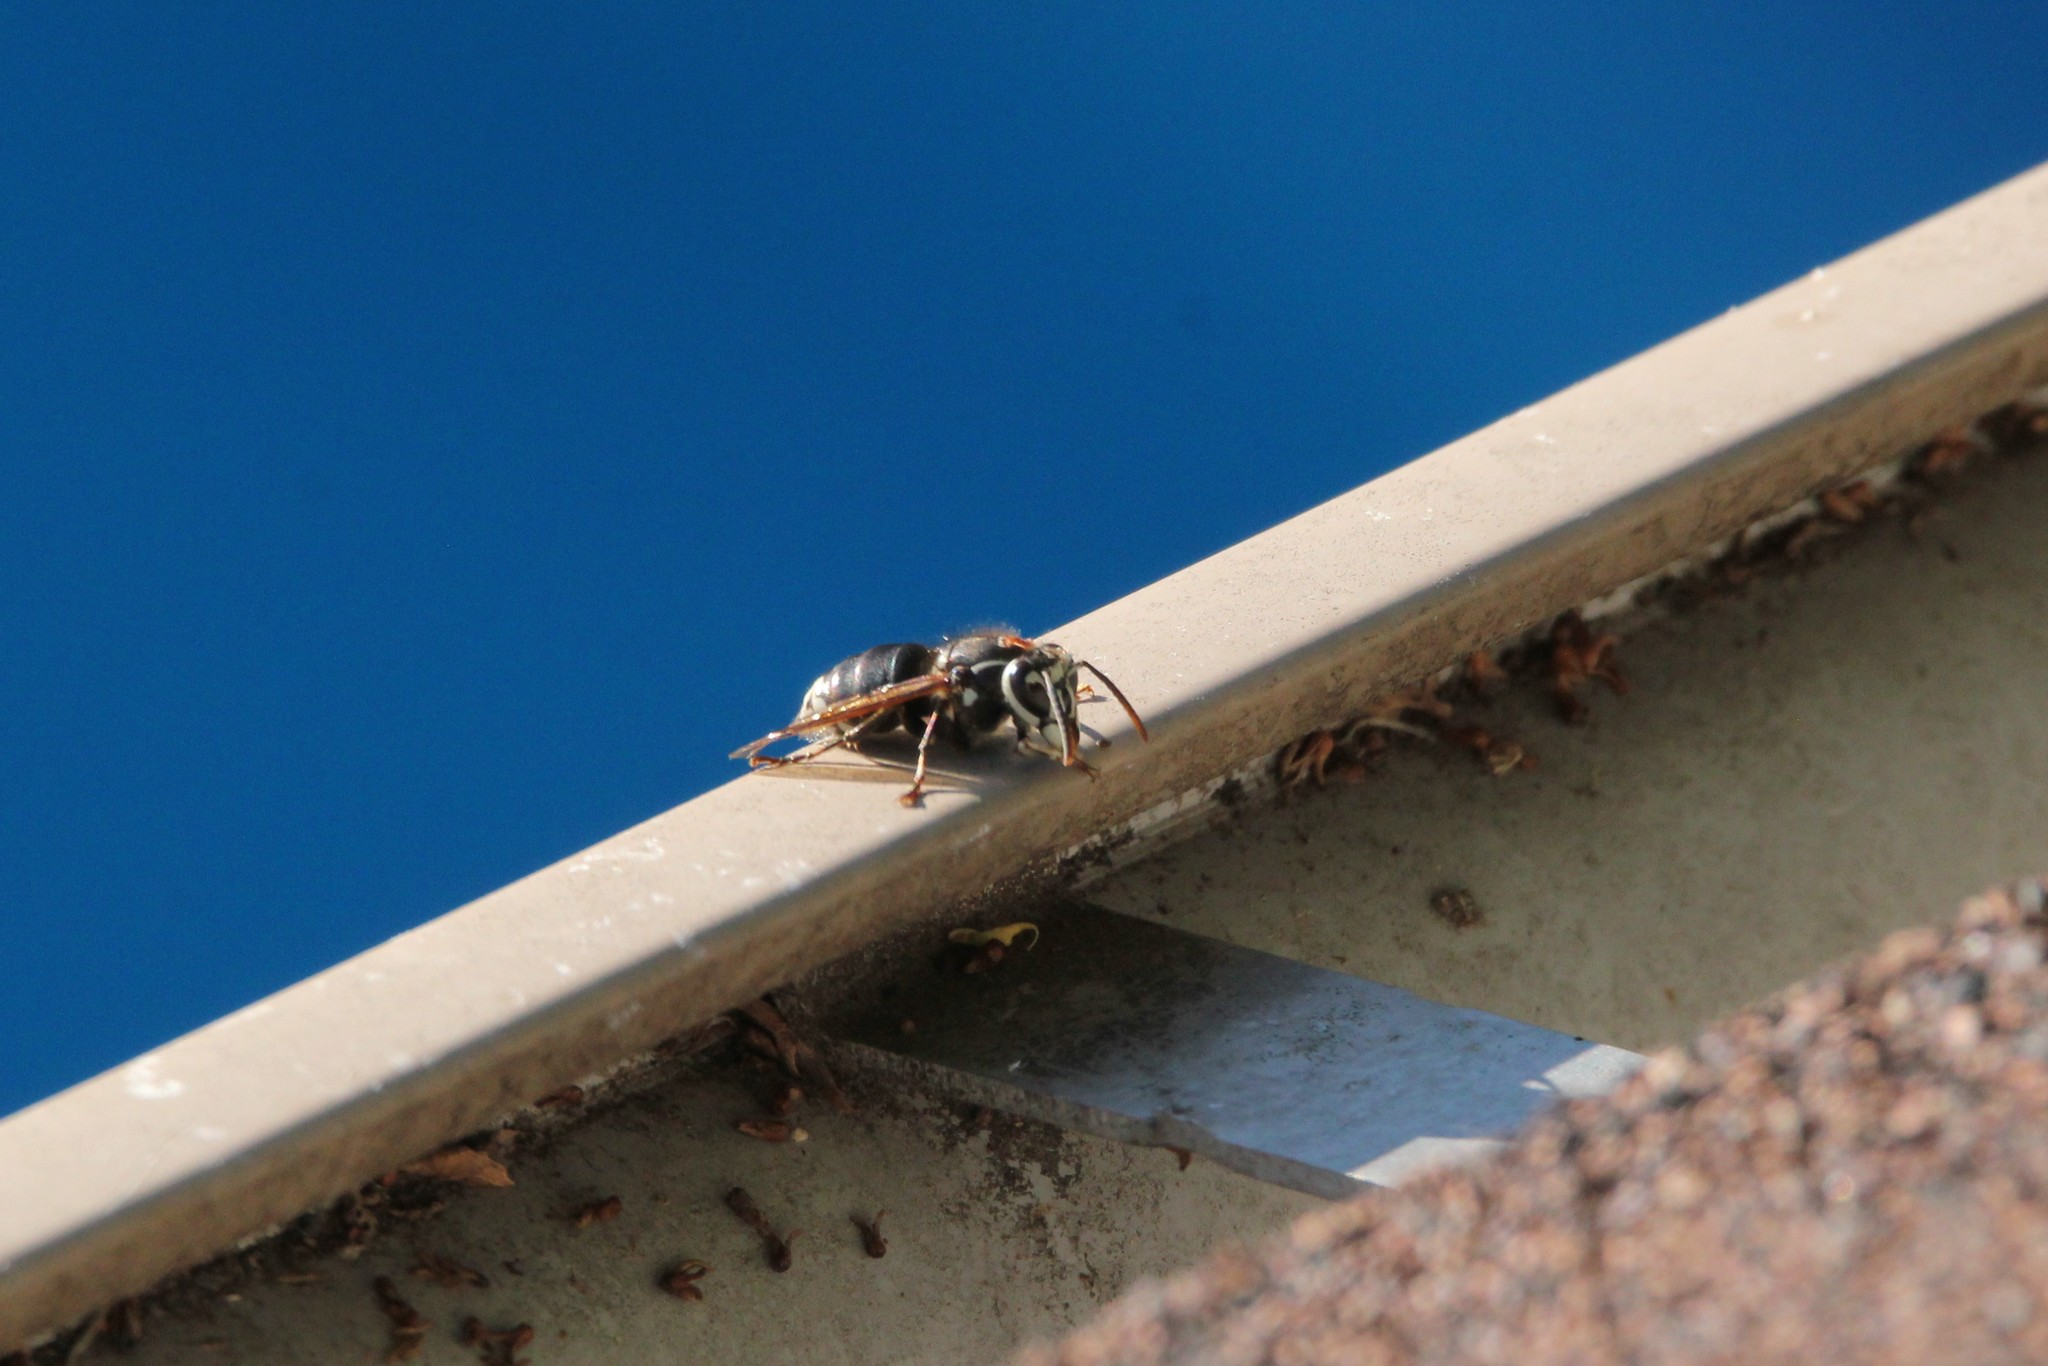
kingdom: Animalia
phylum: Arthropoda
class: Insecta
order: Hymenoptera
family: Vespidae
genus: Dolichovespula
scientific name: Dolichovespula maculata
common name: Bald-faced hornet
